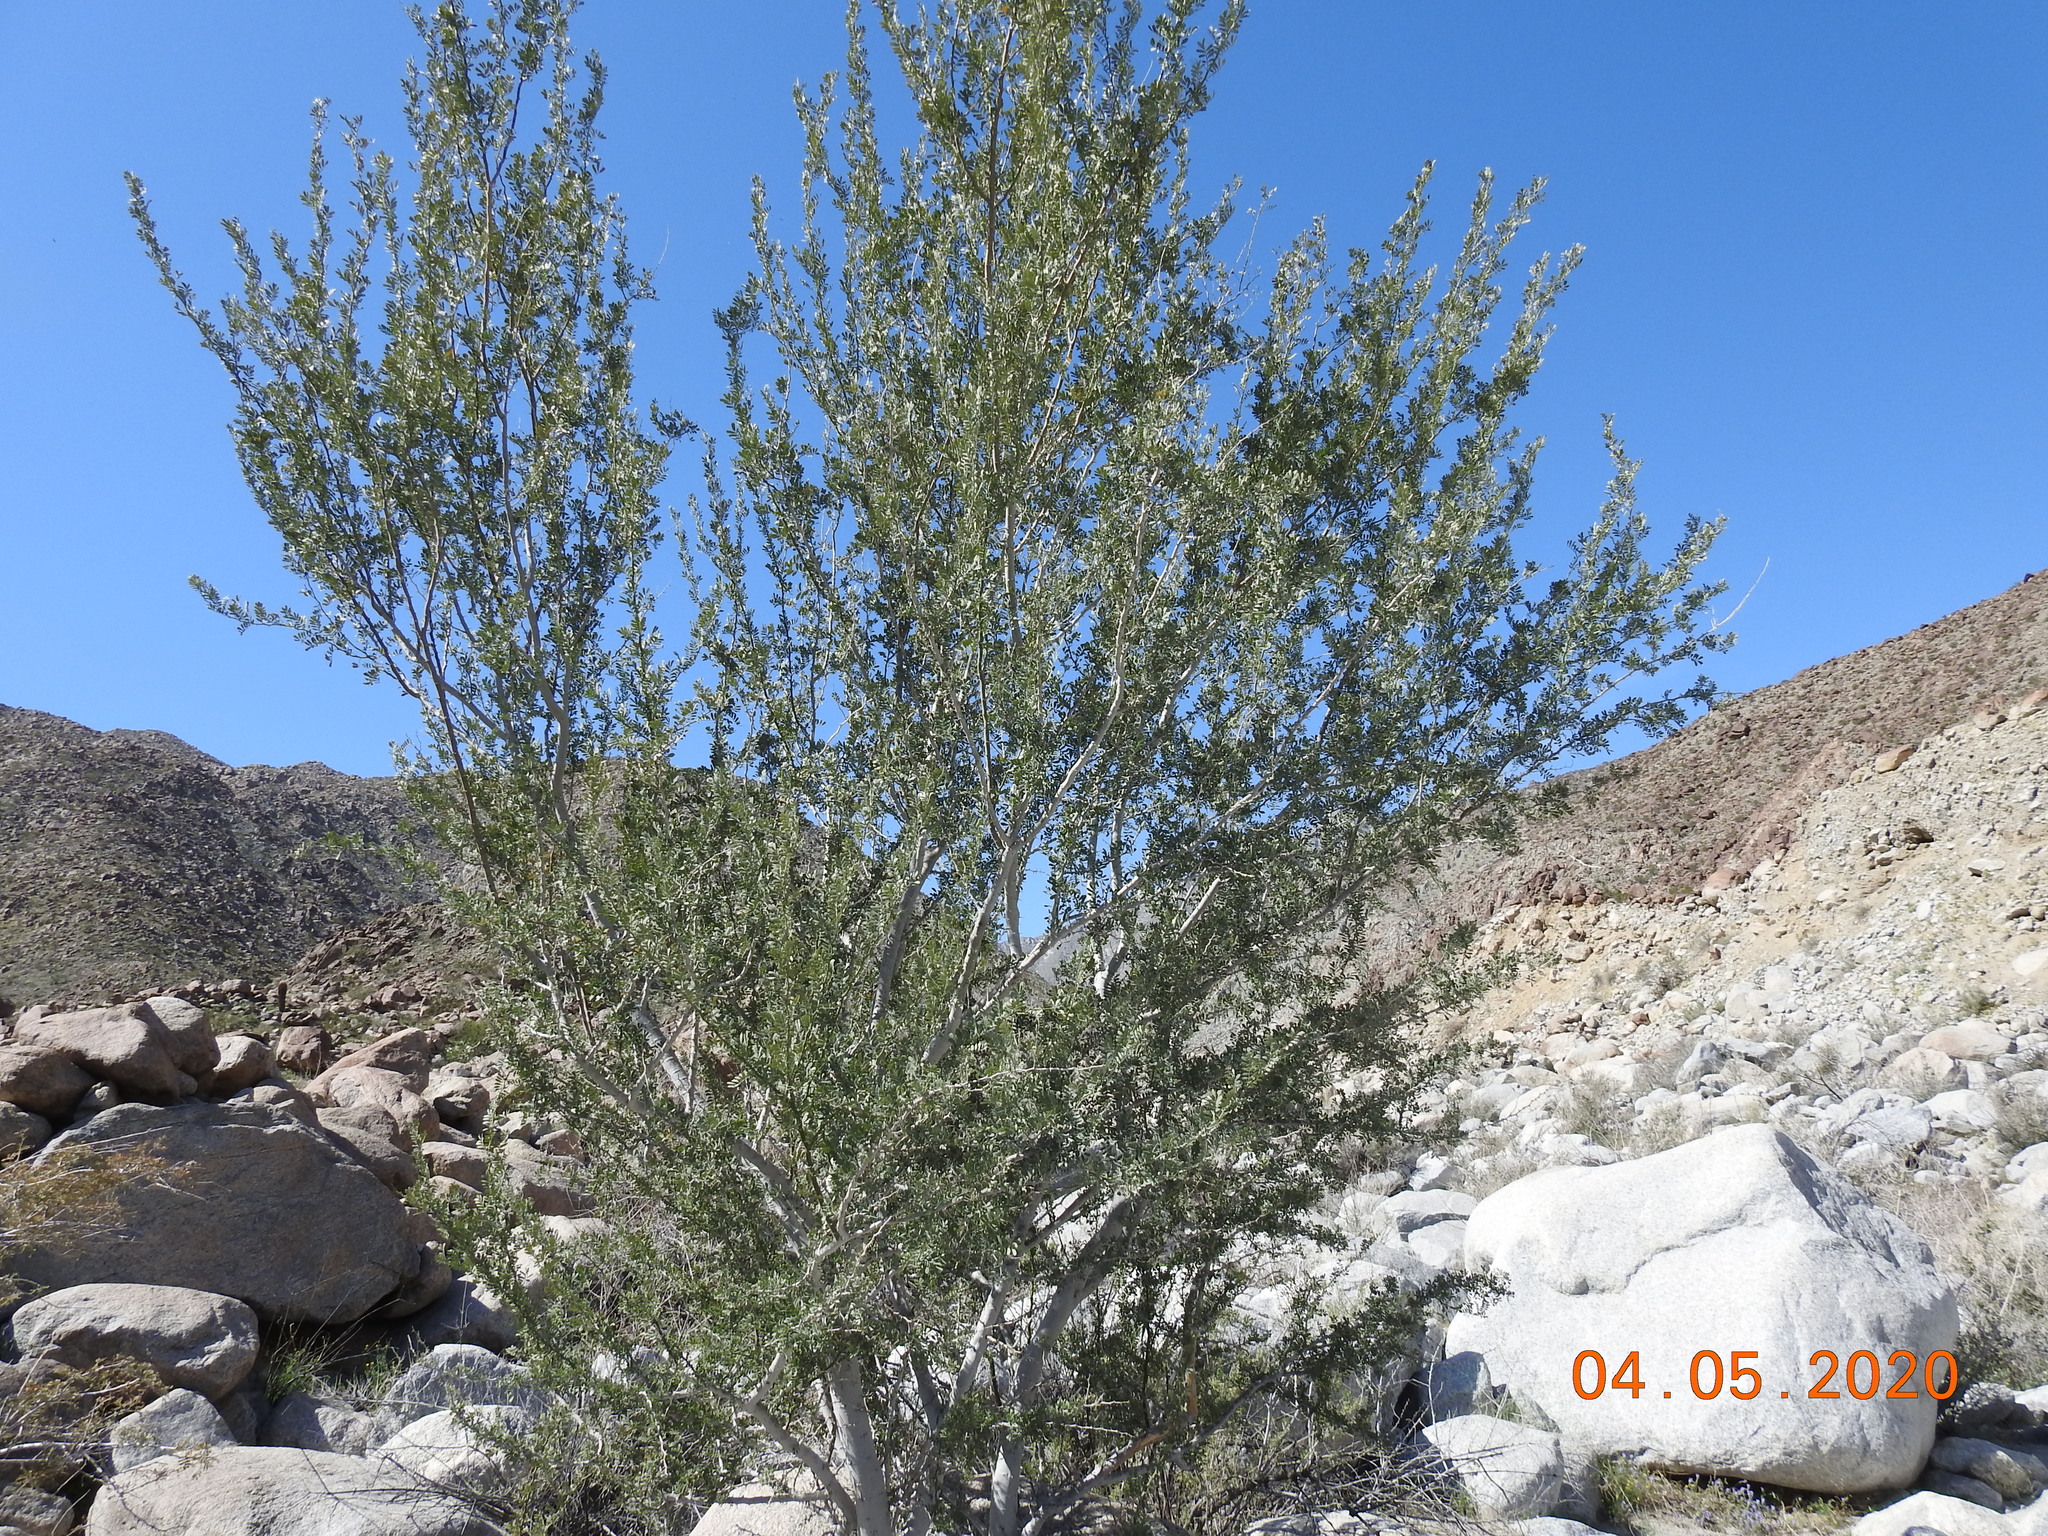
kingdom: Plantae
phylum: Tracheophyta
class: Magnoliopsida
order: Fabales
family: Fabaceae
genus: Olneya
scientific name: Olneya tesota
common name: Desert ironwood
